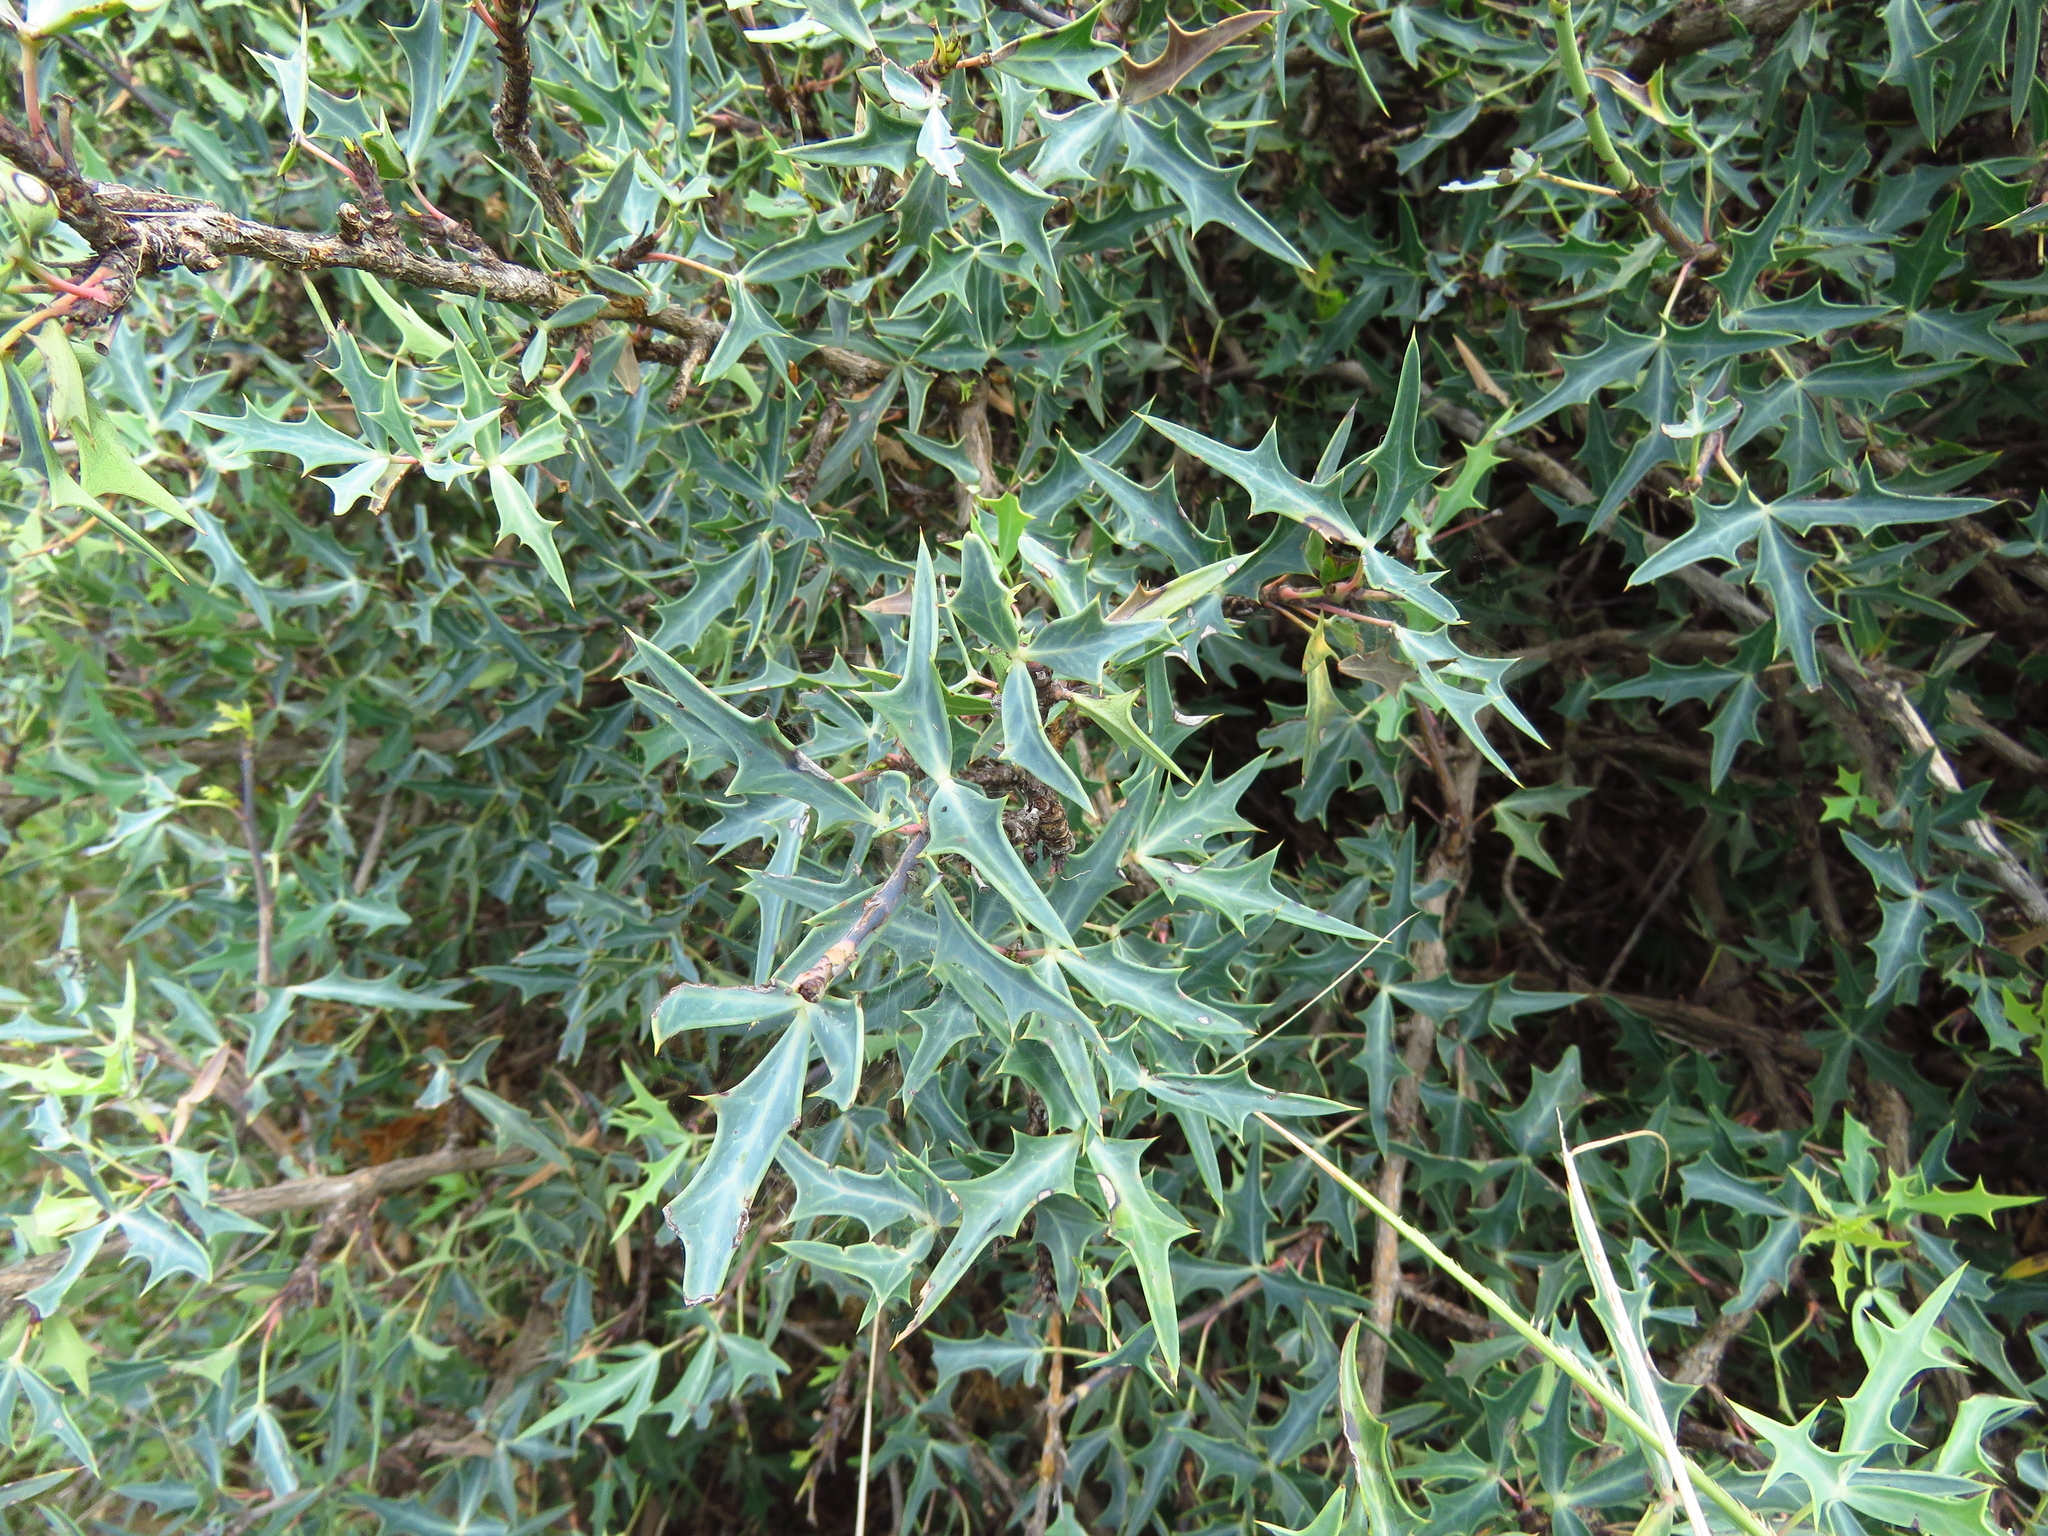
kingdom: Plantae
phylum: Tracheophyta
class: Magnoliopsida
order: Ranunculales
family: Berberidaceae
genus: Alloberberis
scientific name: Alloberberis trifoliolata
